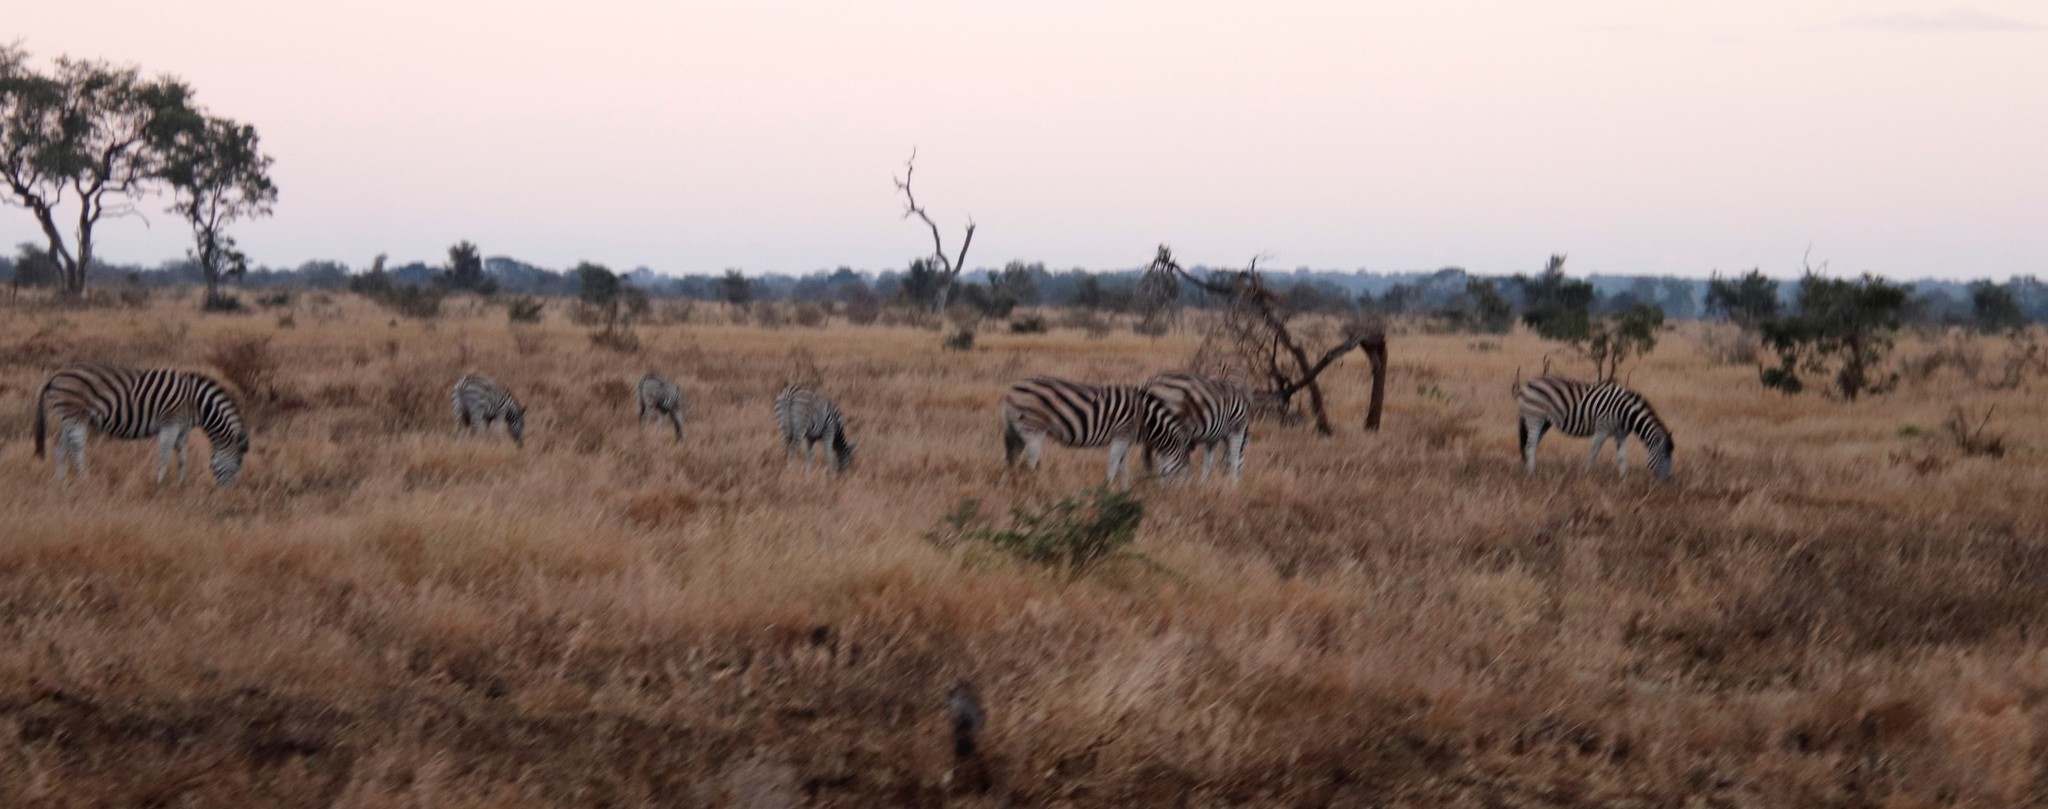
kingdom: Animalia
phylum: Chordata
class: Mammalia
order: Perissodactyla
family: Equidae
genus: Equus
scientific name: Equus quagga
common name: Plains zebra
